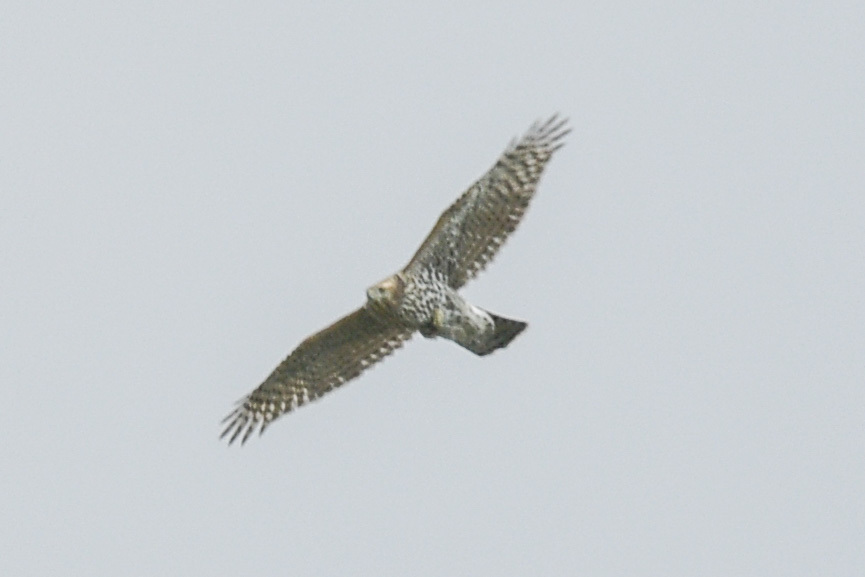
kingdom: Animalia
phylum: Chordata
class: Aves
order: Accipitriformes
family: Accipitridae
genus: Accipiter
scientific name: Accipiter gentilis
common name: Northern goshawk
